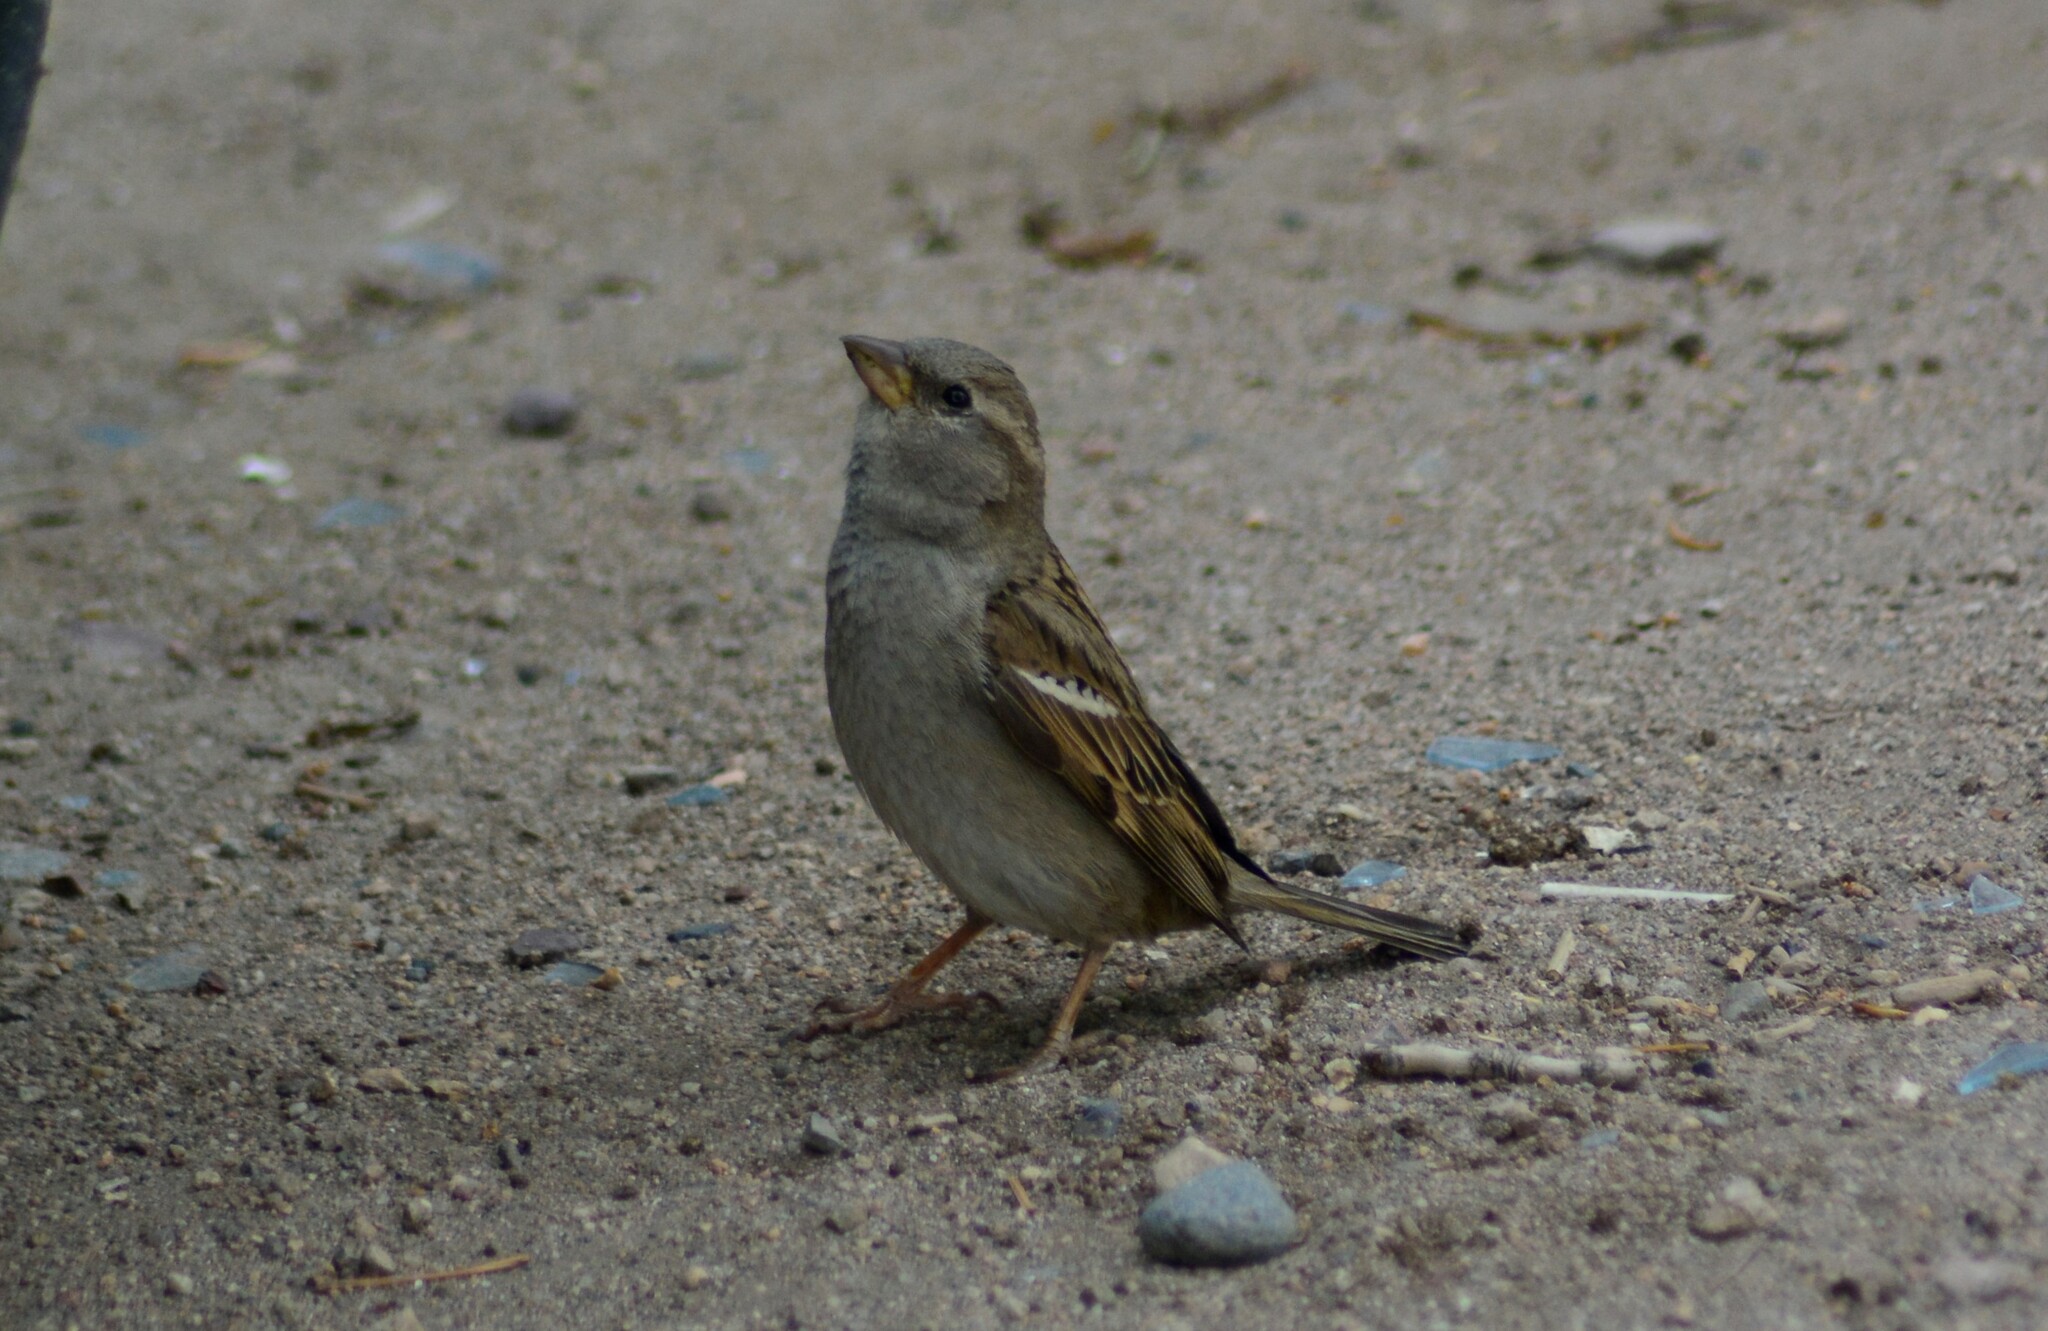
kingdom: Animalia
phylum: Chordata
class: Aves
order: Passeriformes
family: Passeridae
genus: Passer
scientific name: Passer domesticus
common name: House sparrow
